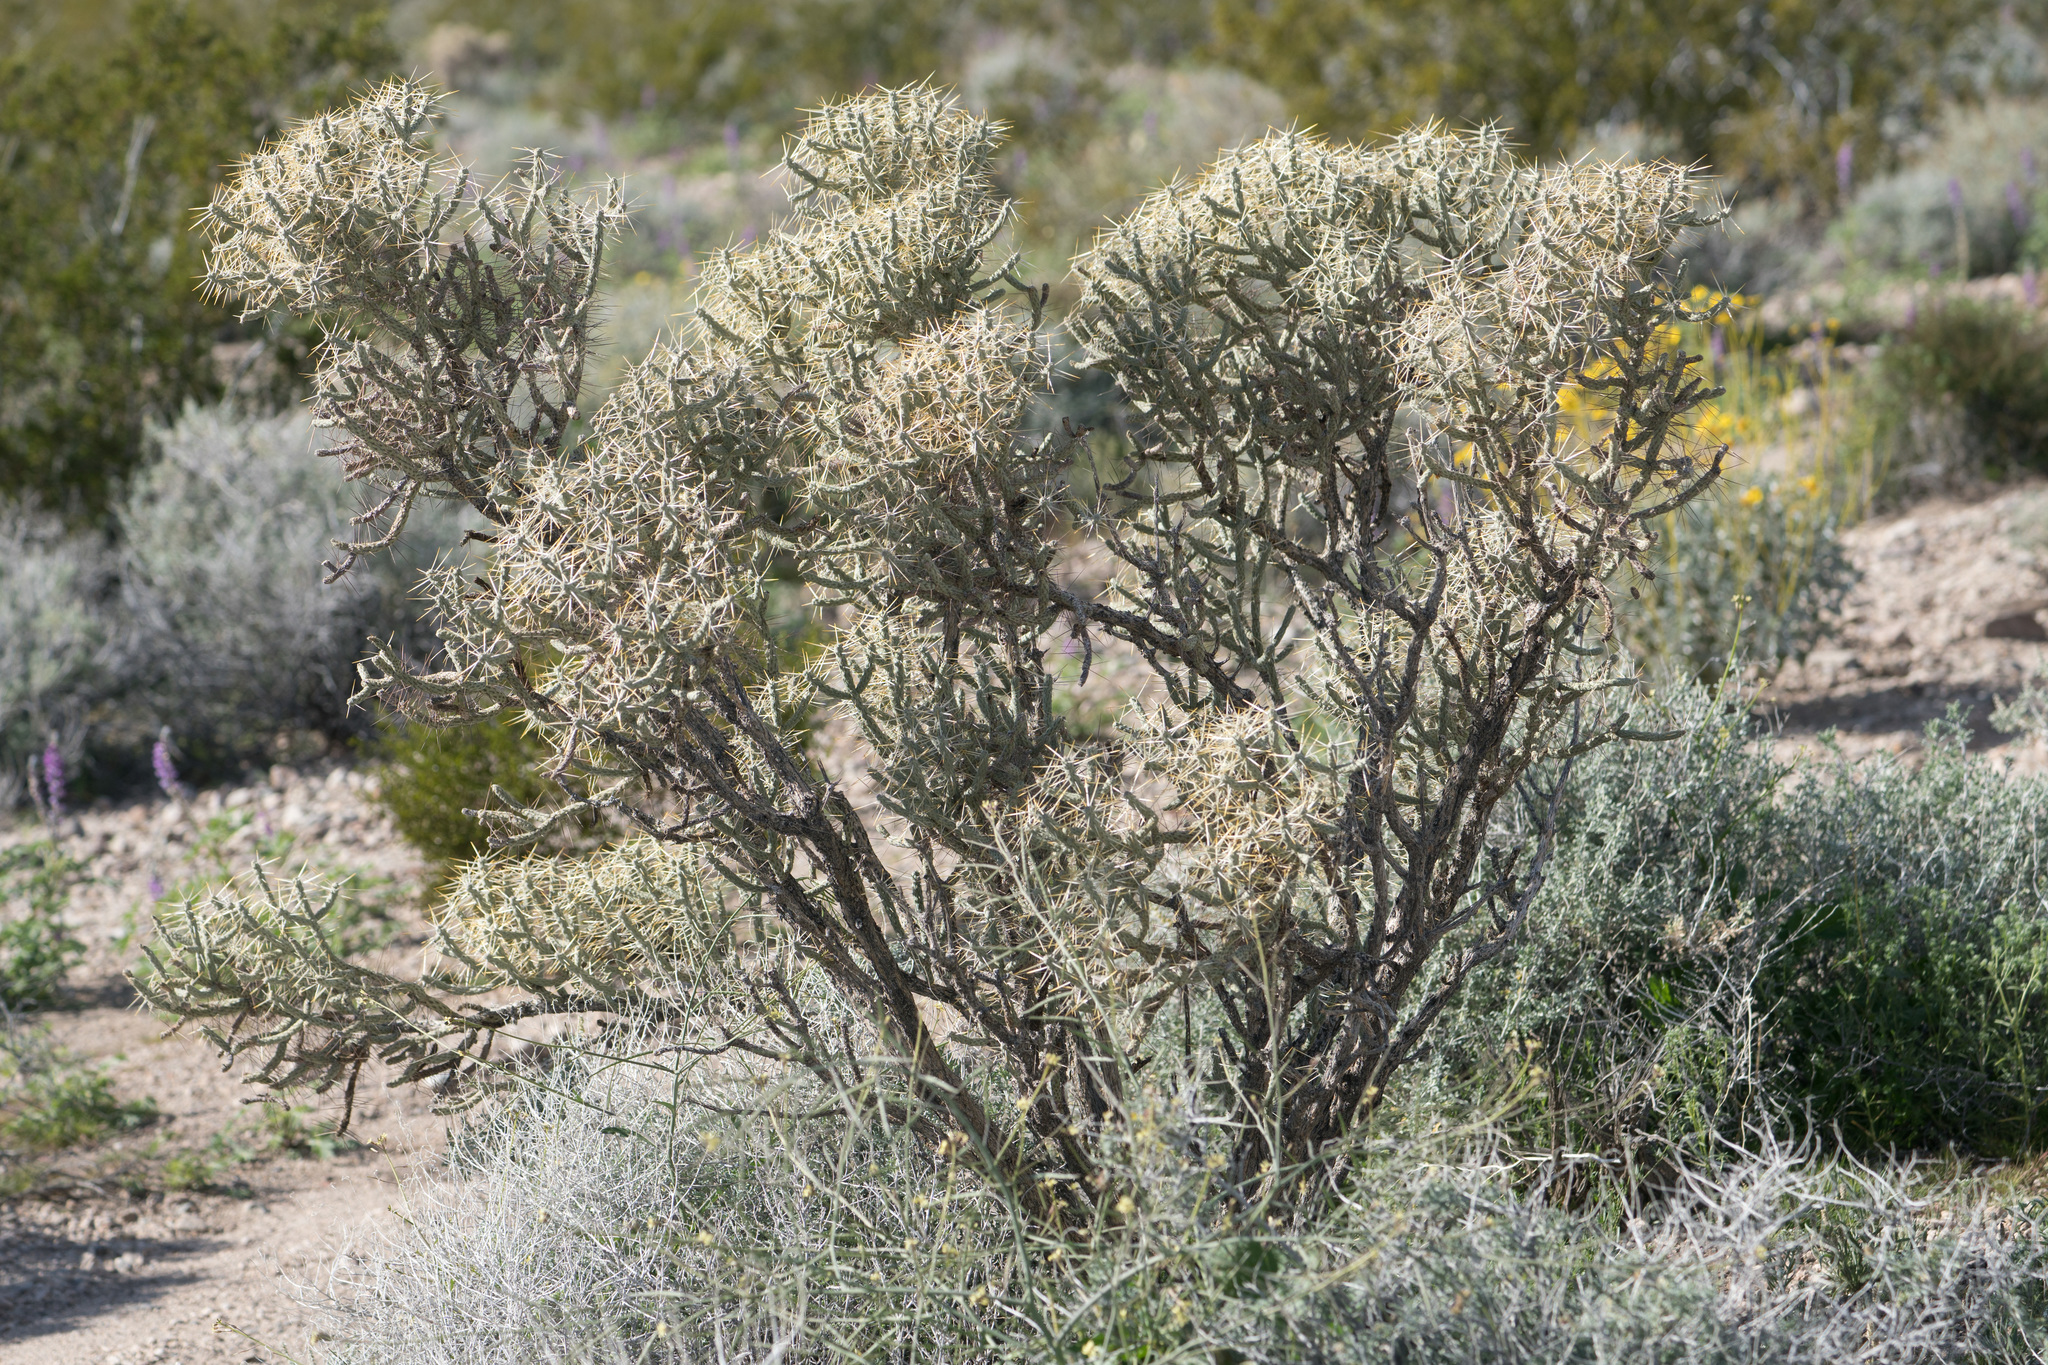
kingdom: Plantae
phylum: Tracheophyta
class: Magnoliopsida
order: Caryophyllales
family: Cactaceae
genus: Cylindropuntia
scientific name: Cylindropuntia ramosissima
